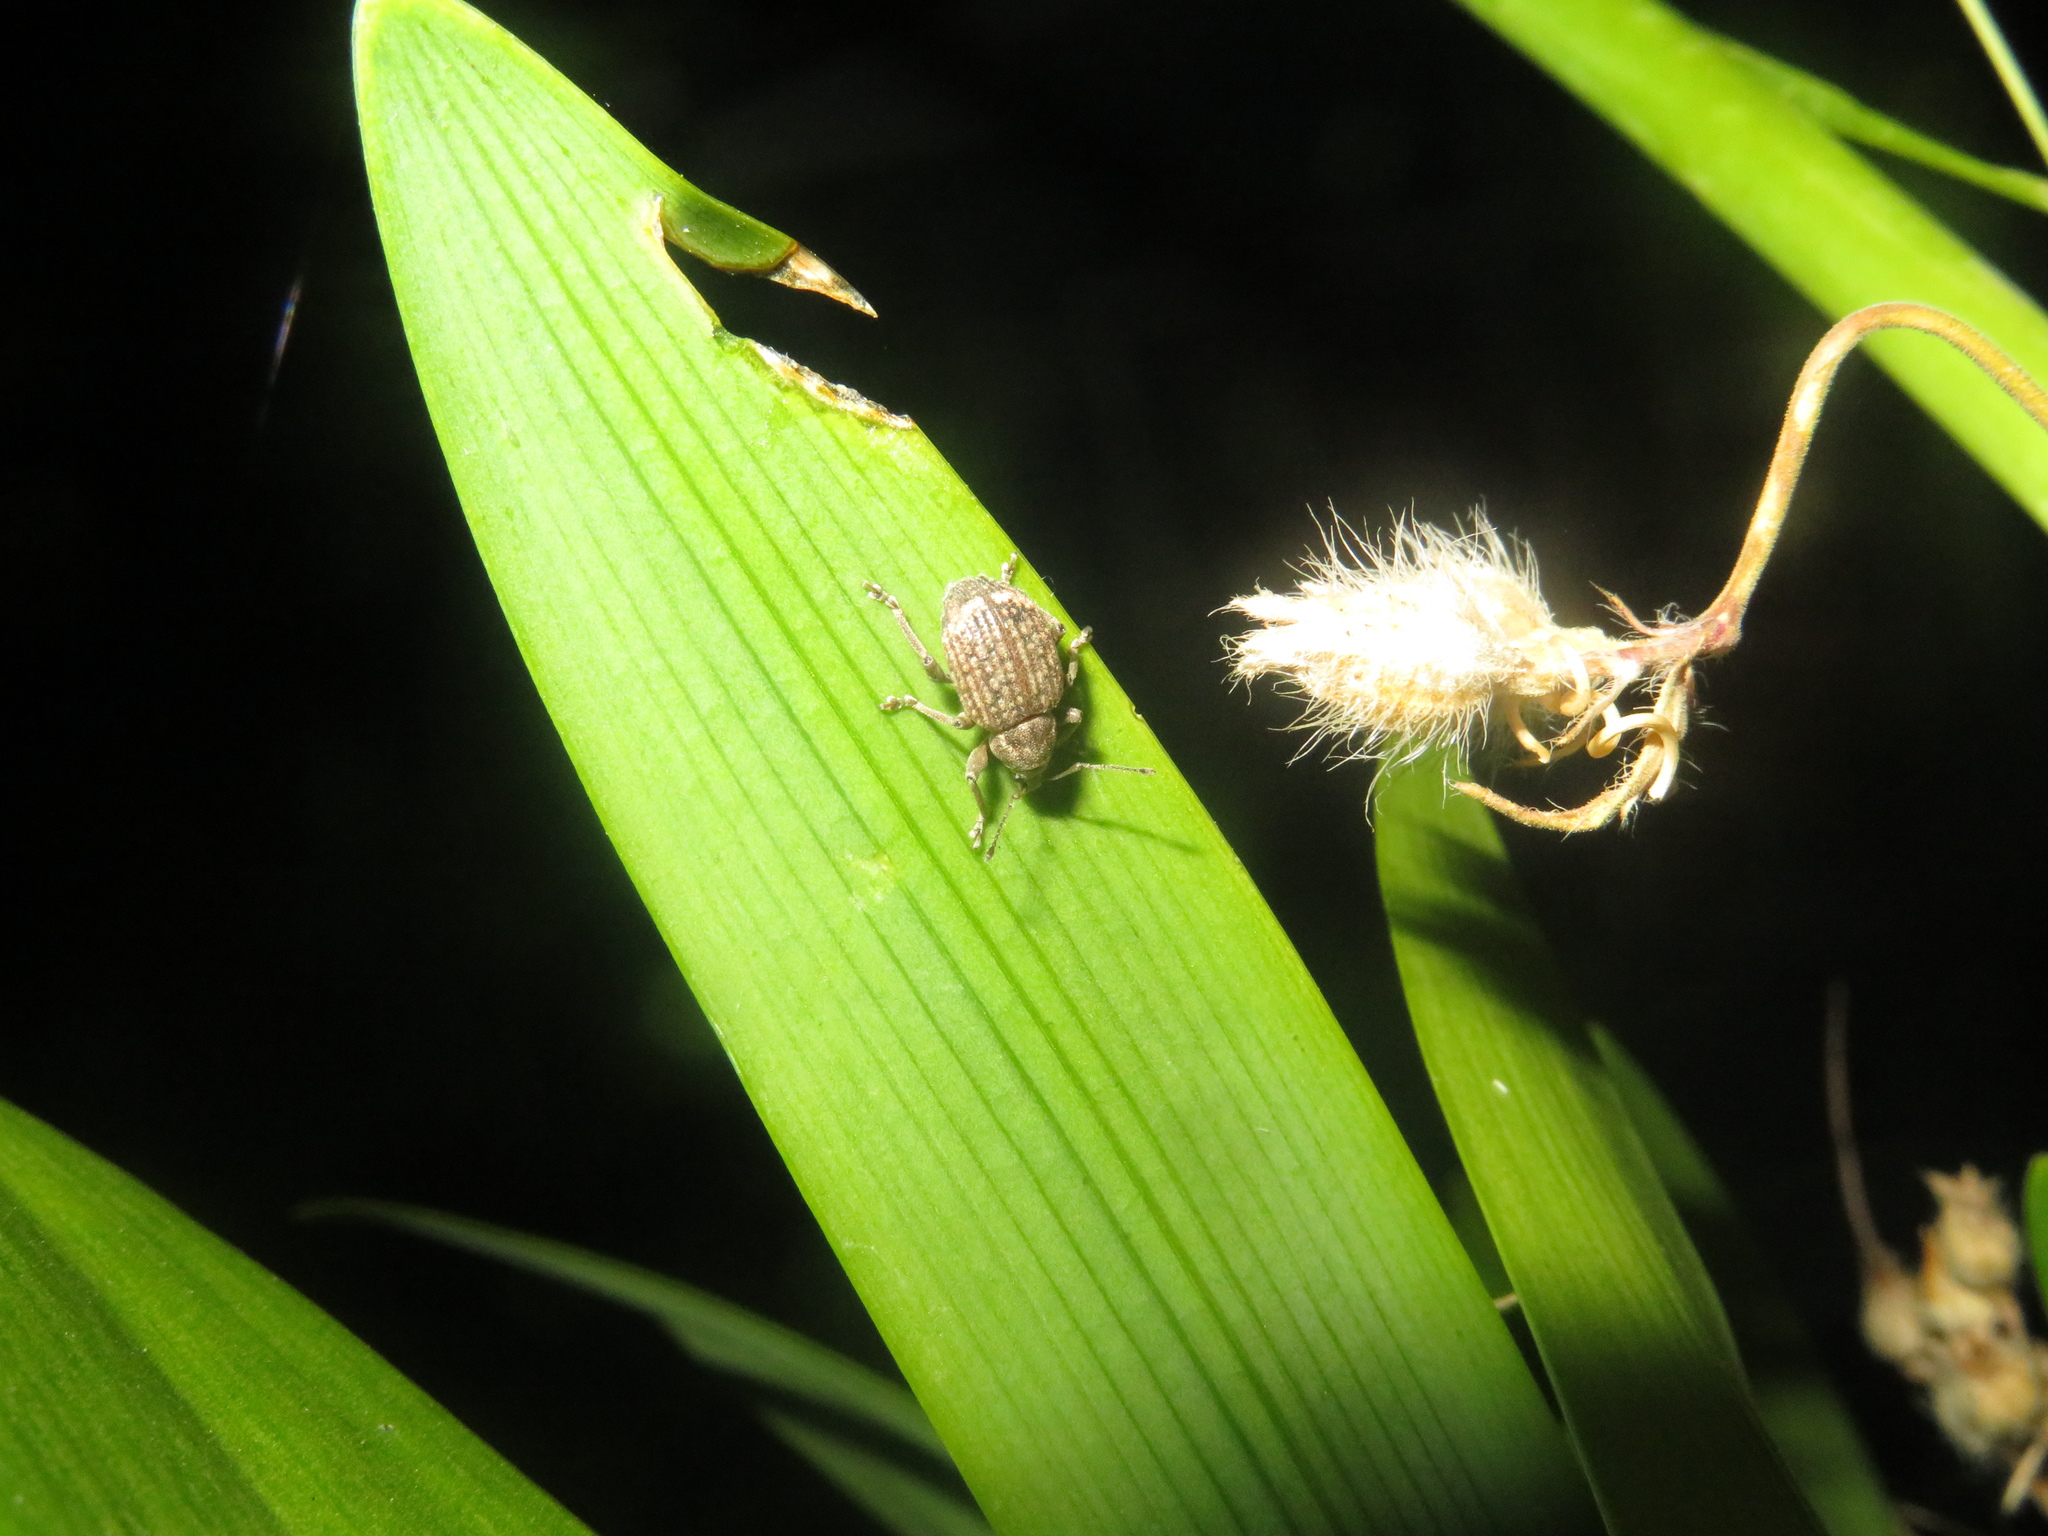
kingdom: Animalia
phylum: Arthropoda
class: Insecta
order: Coleoptera
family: Curculionidae
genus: Phlyctinus
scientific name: Phlyctinus callosus
